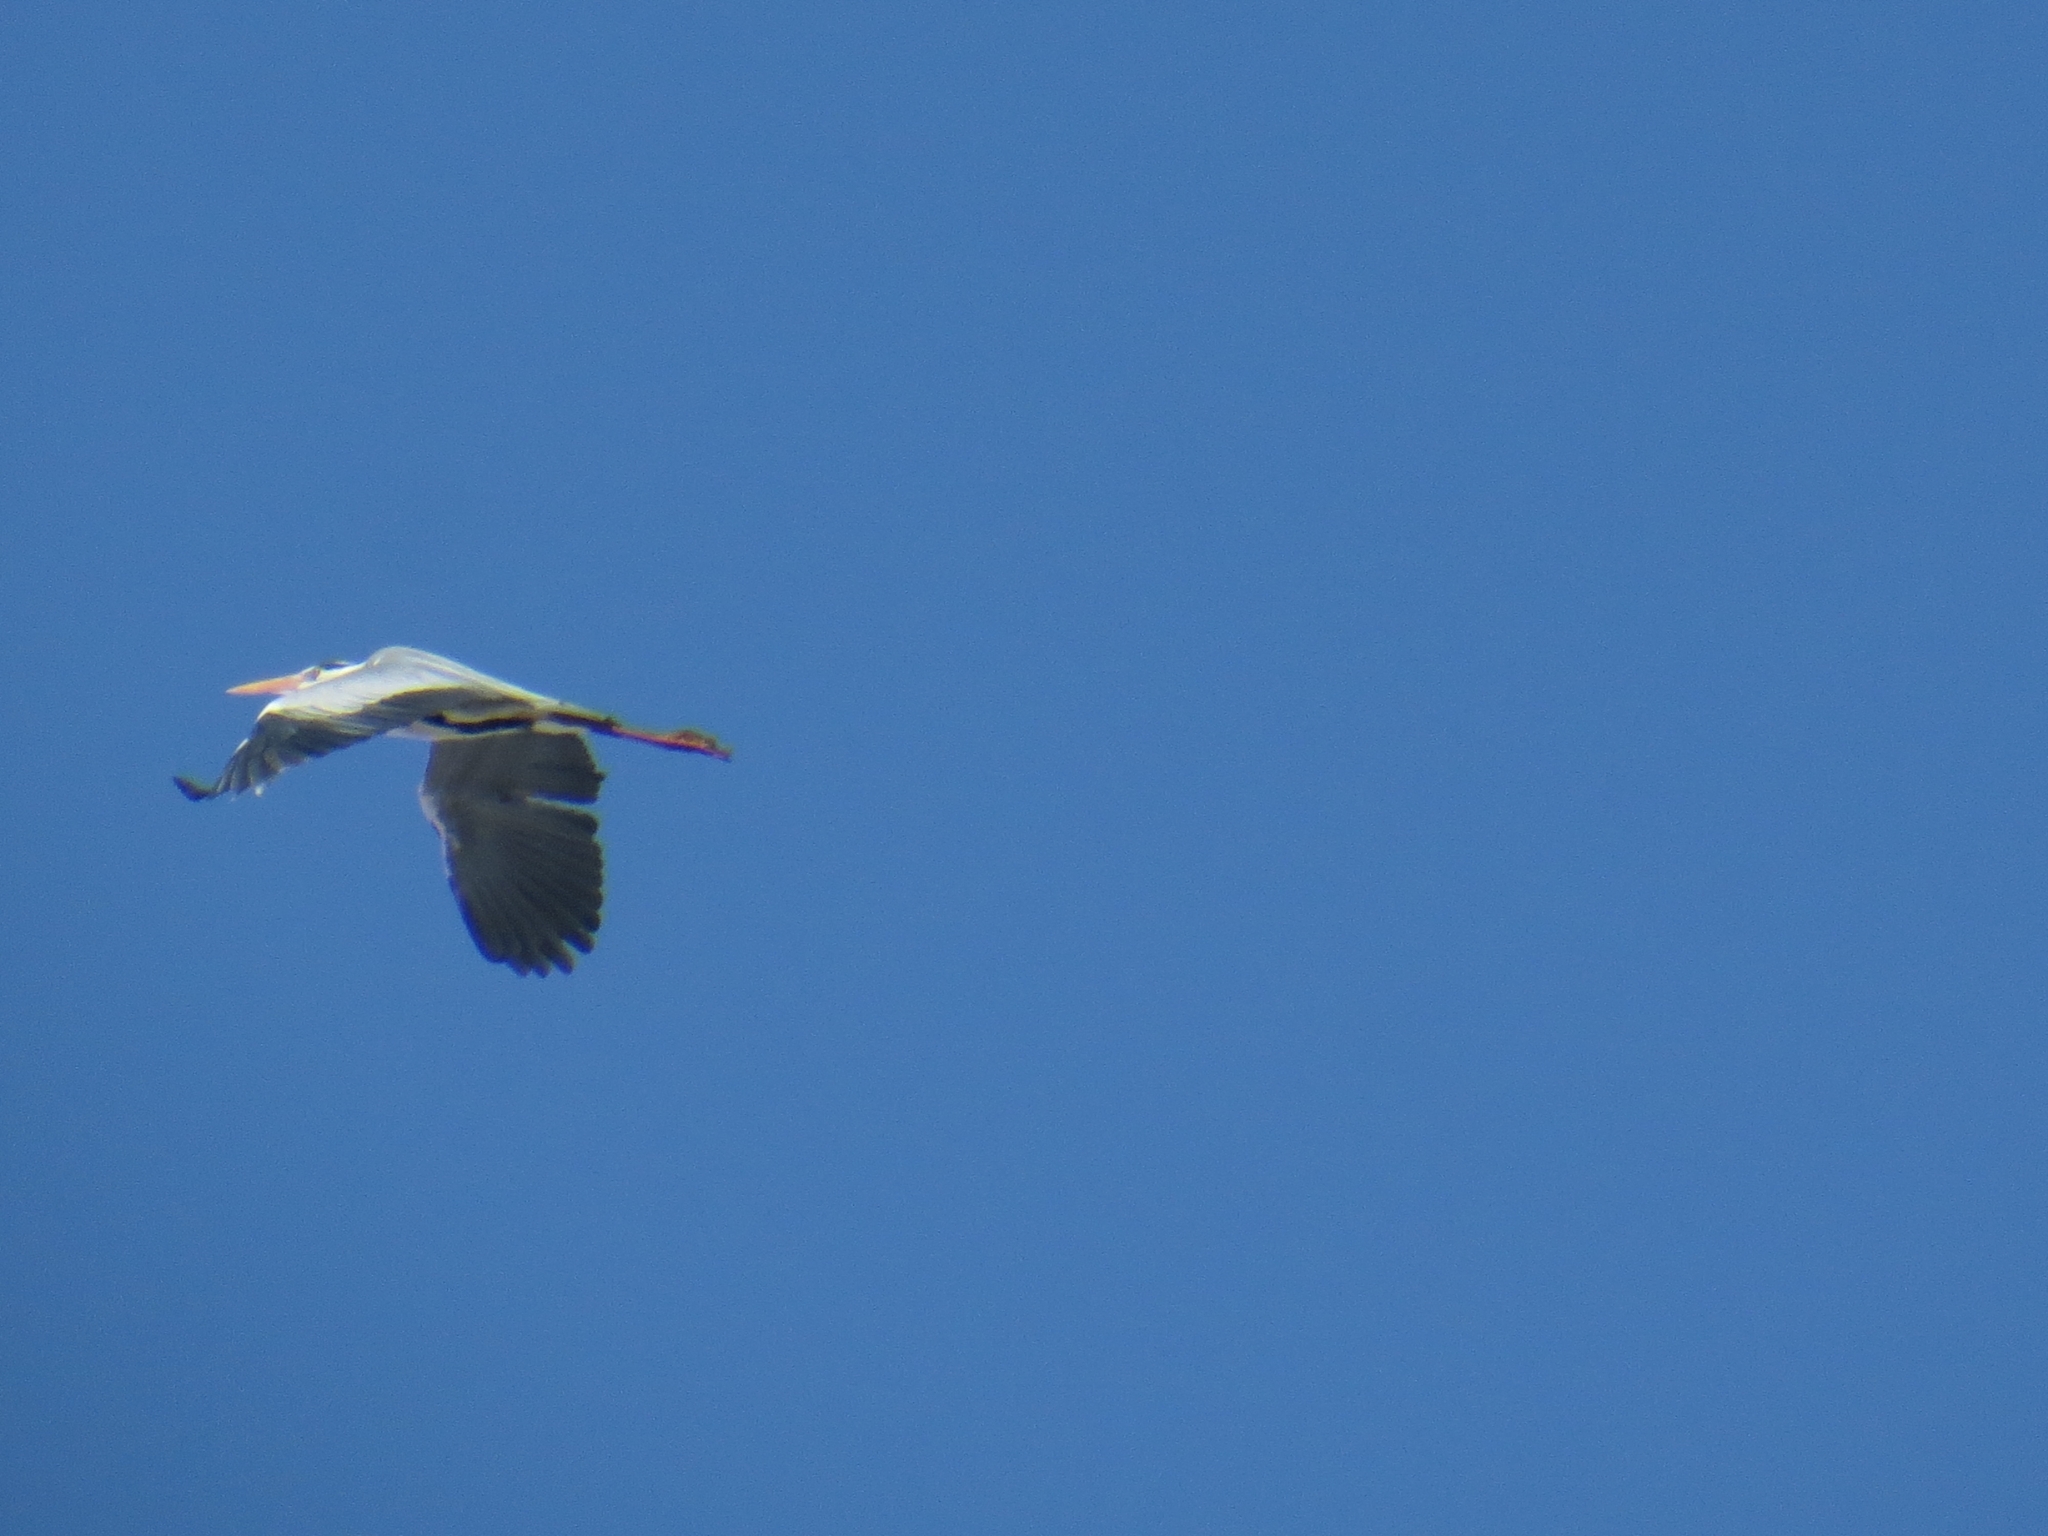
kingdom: Animalia
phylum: Chordata
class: Aves
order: Pelecaniformes
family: Ardeidae
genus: Ardea
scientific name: Ardea cinerea
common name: Grey heron
